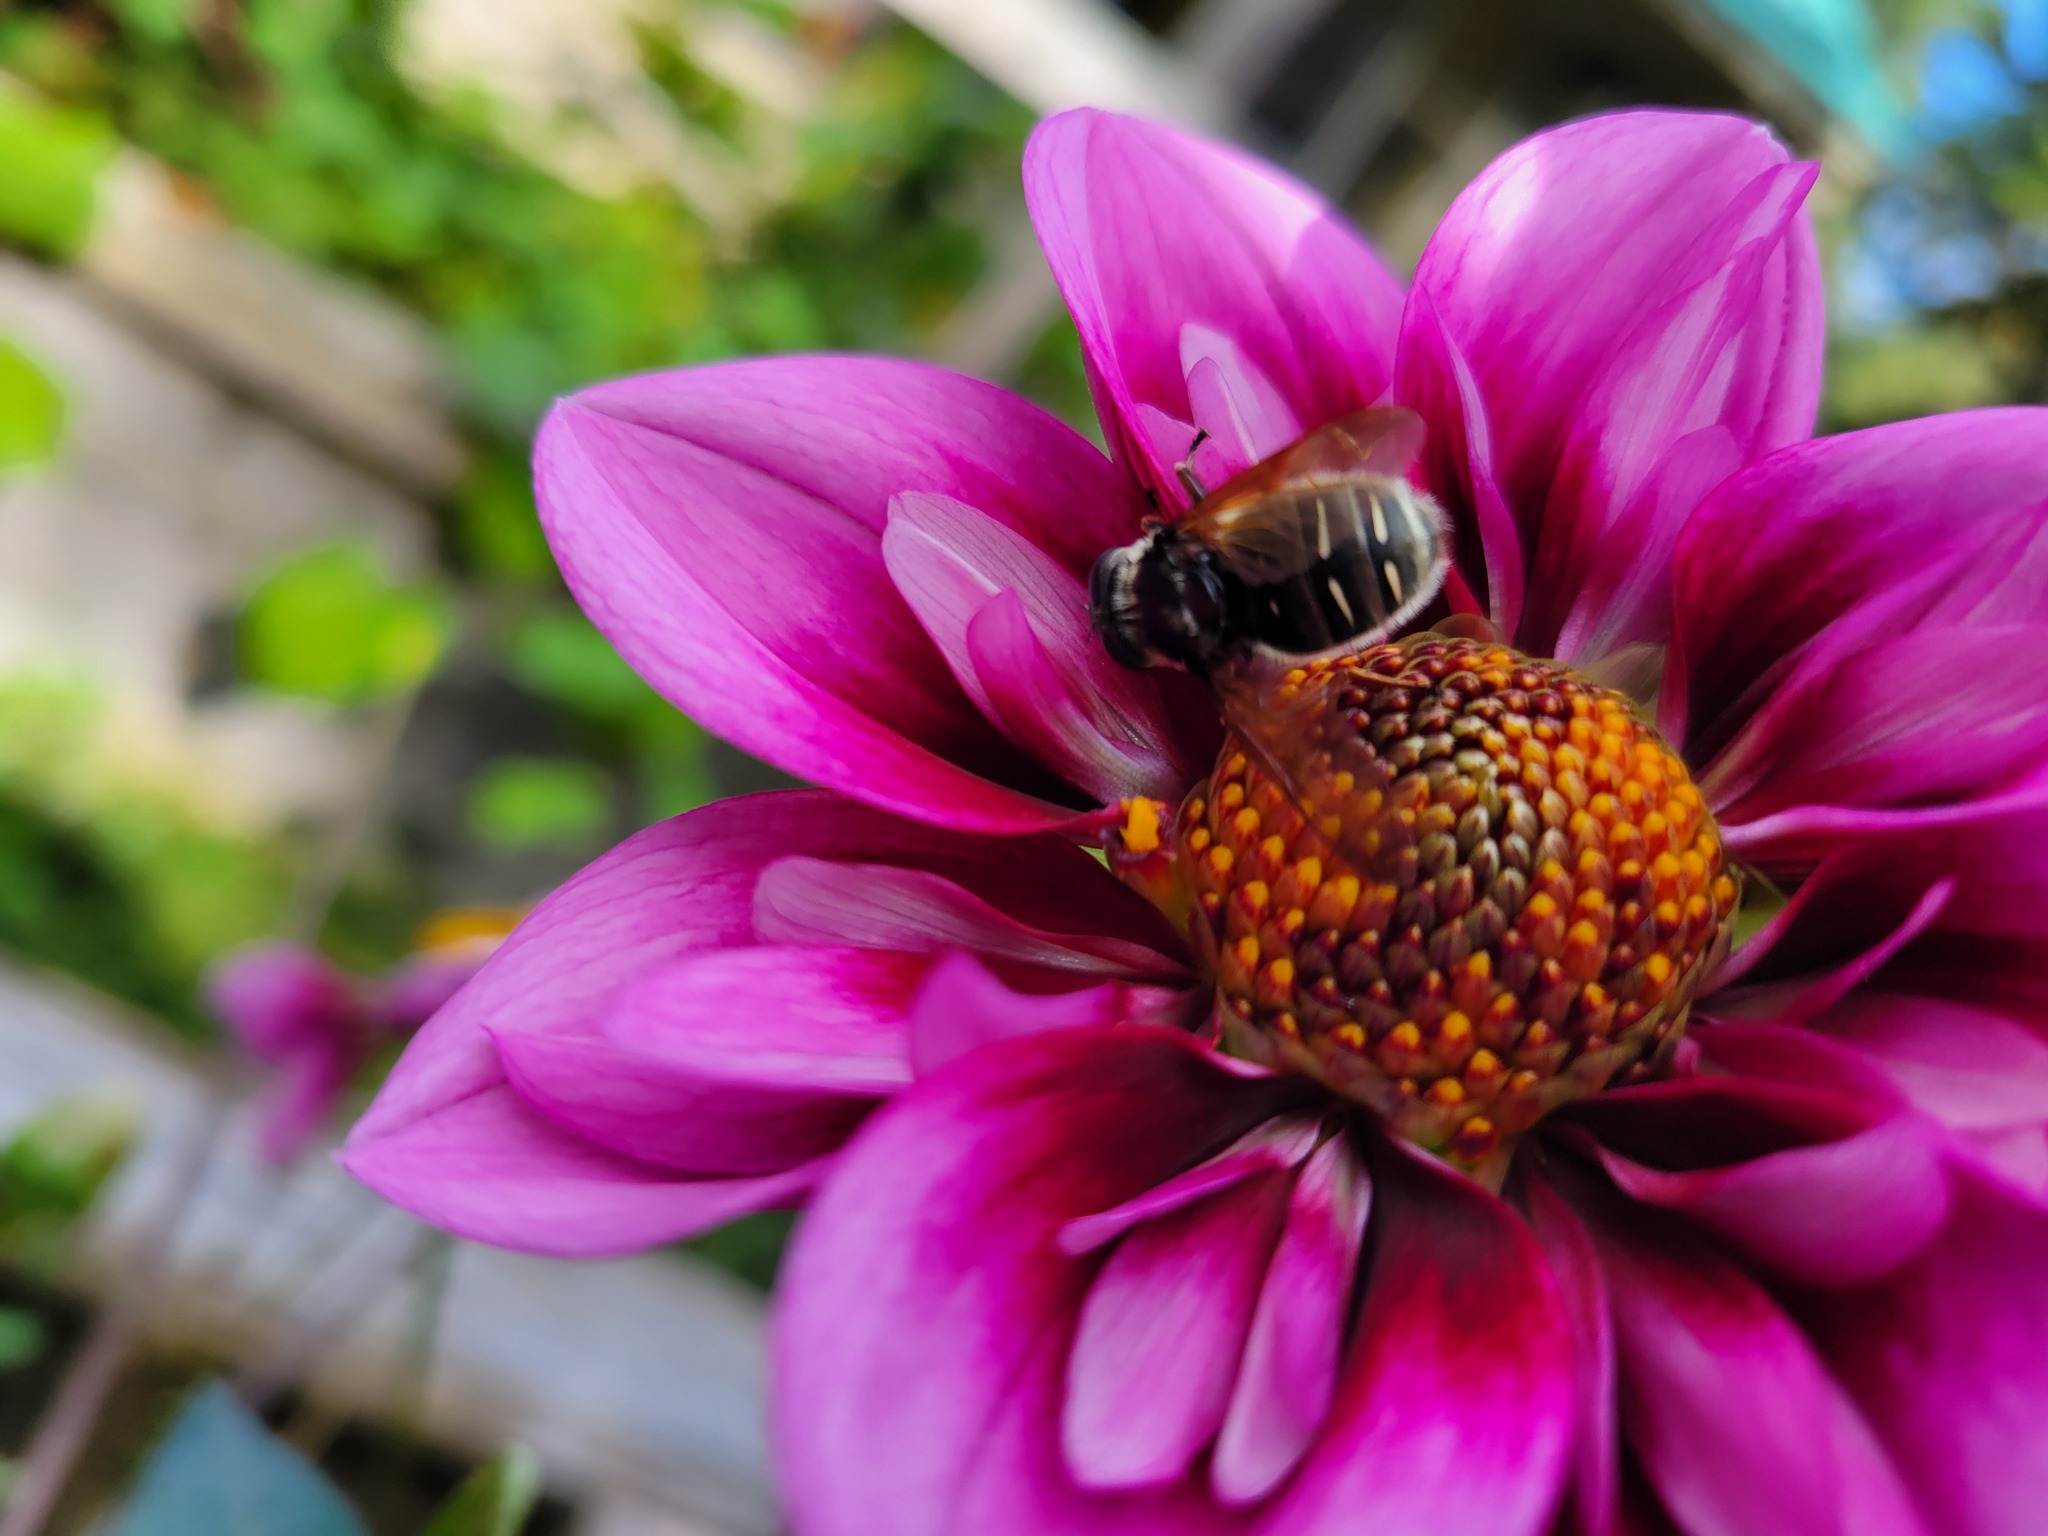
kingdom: Animalia
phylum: Arthropoda
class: Insecta
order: Diptera
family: Syrphidae
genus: Sericomyia
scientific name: Sericomyia militaris
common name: Narrow-banded pond fly
